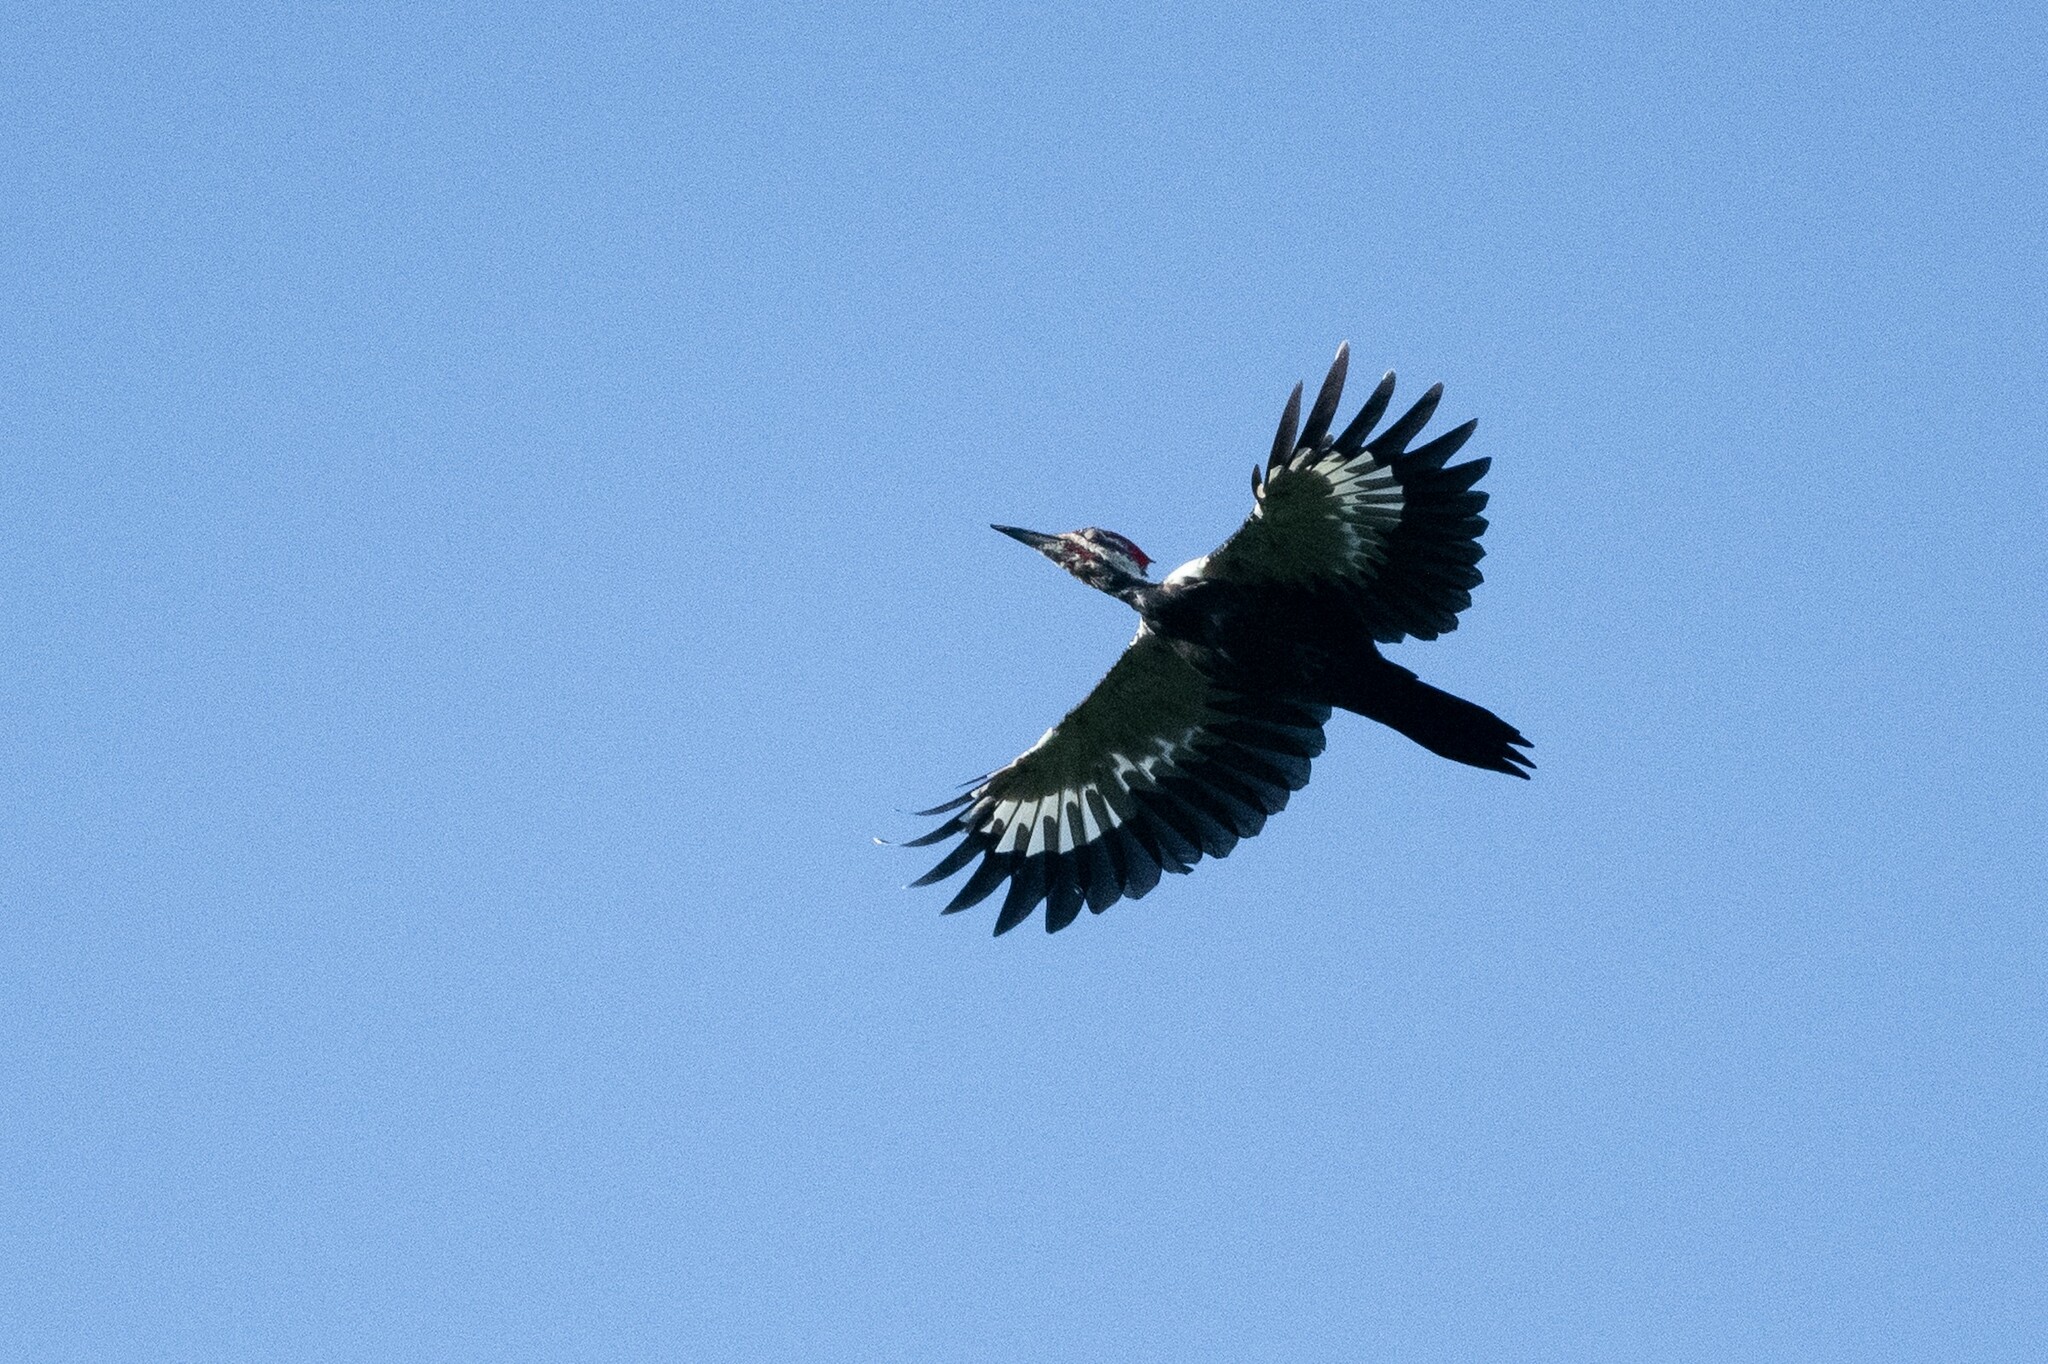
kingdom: Animalia
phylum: Chordata
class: Aves
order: Piciformes
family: Picidae
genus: Dryocopus
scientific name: Dryocopus pileatus
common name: Pileated woodpecker
